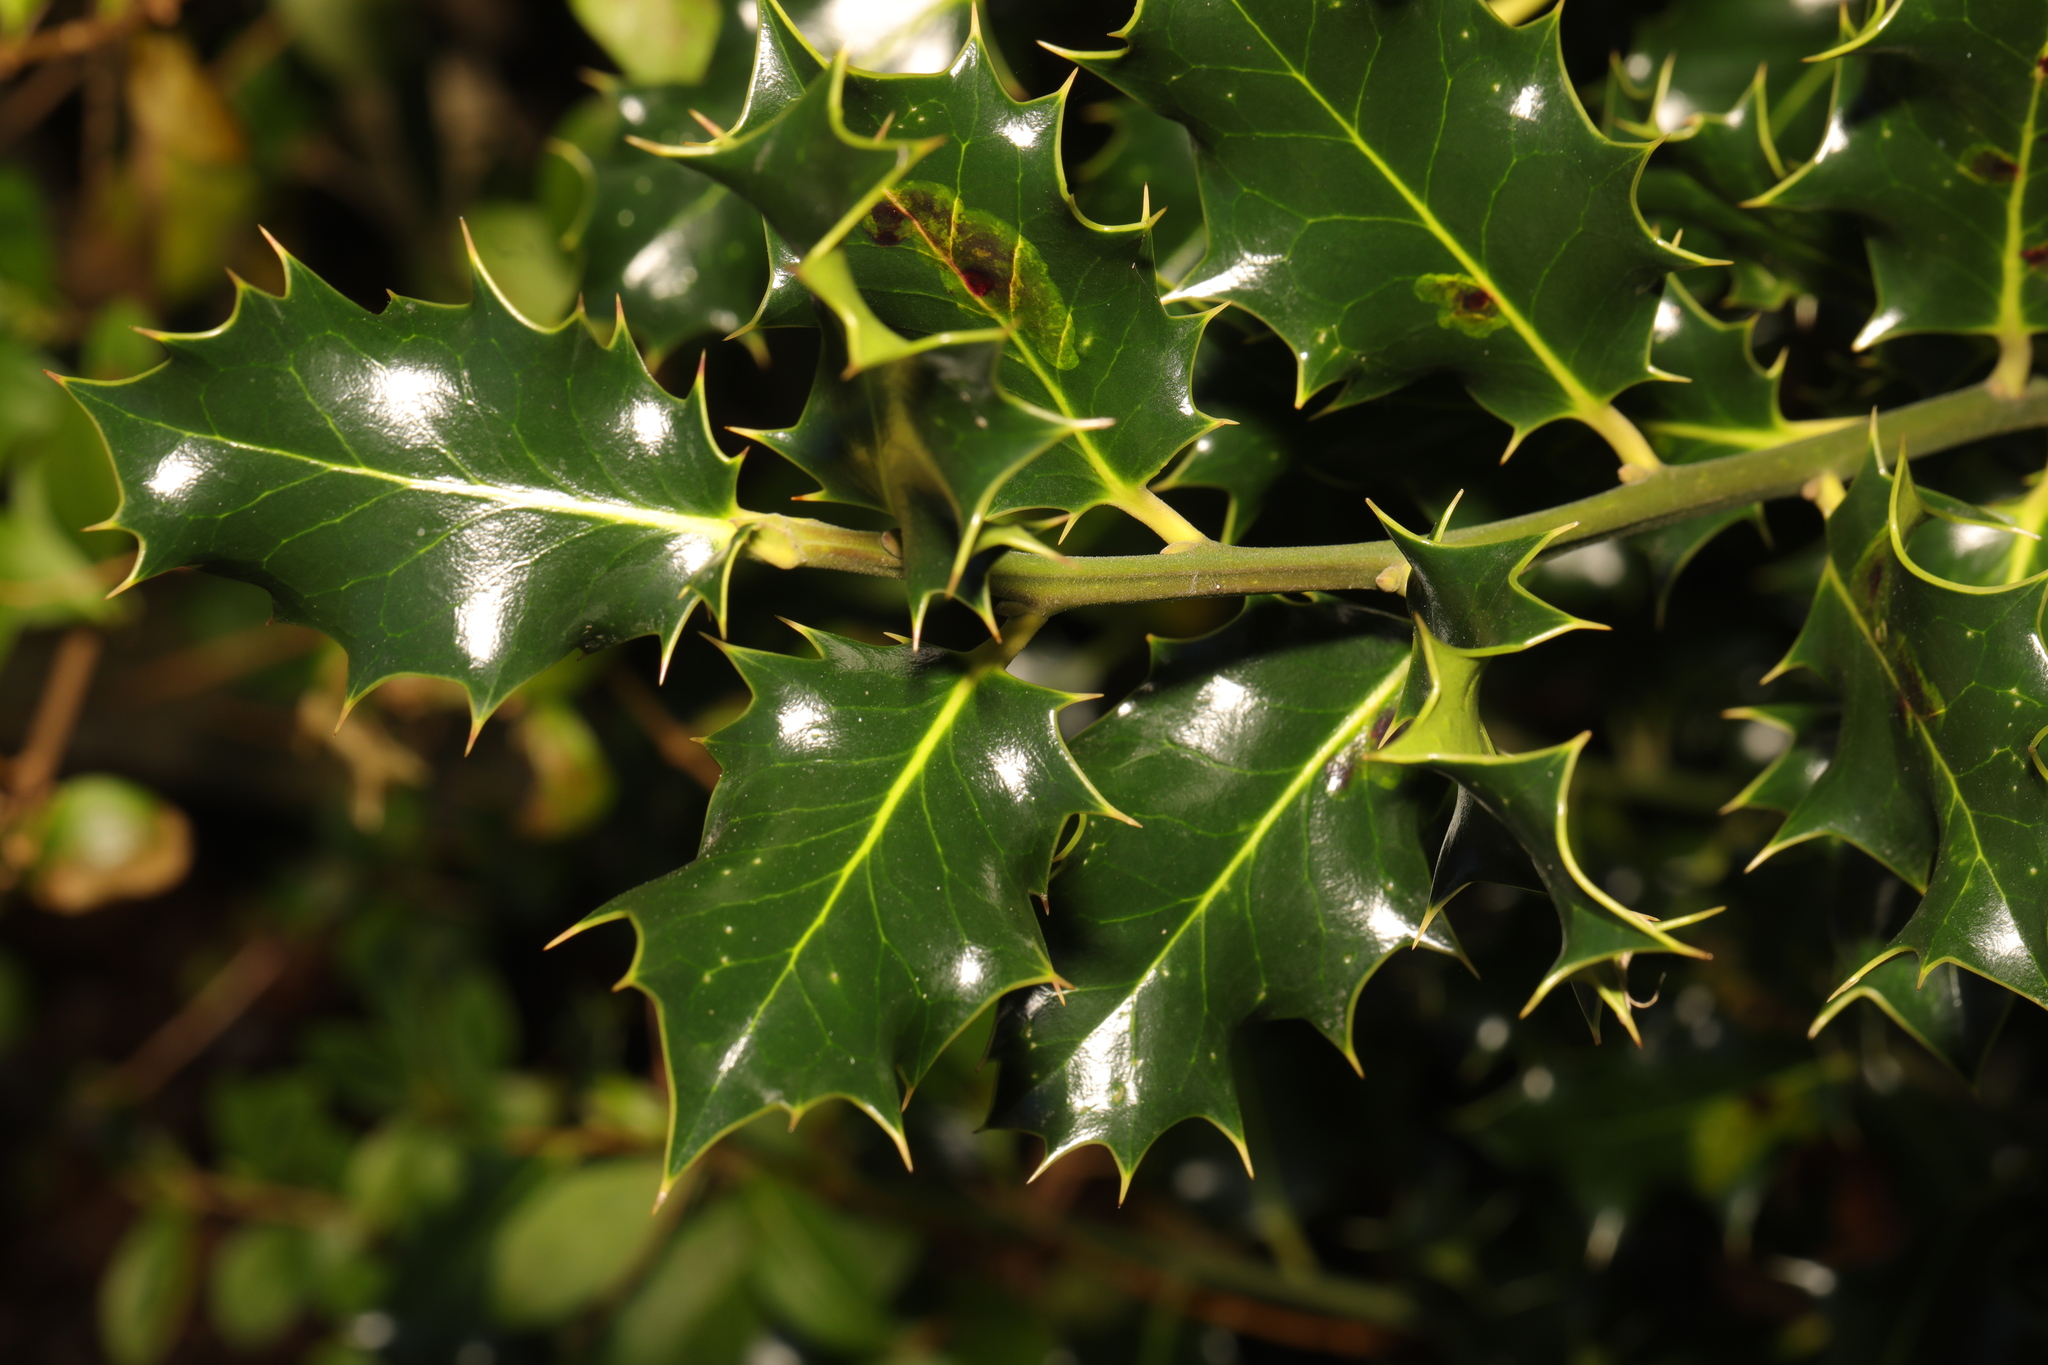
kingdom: Plantae
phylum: Tracheophyta
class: Magnoliopsida
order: Aquifoliales
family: Aquifoliaceae
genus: Ilex
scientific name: Ilex aquifolium
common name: English holly
